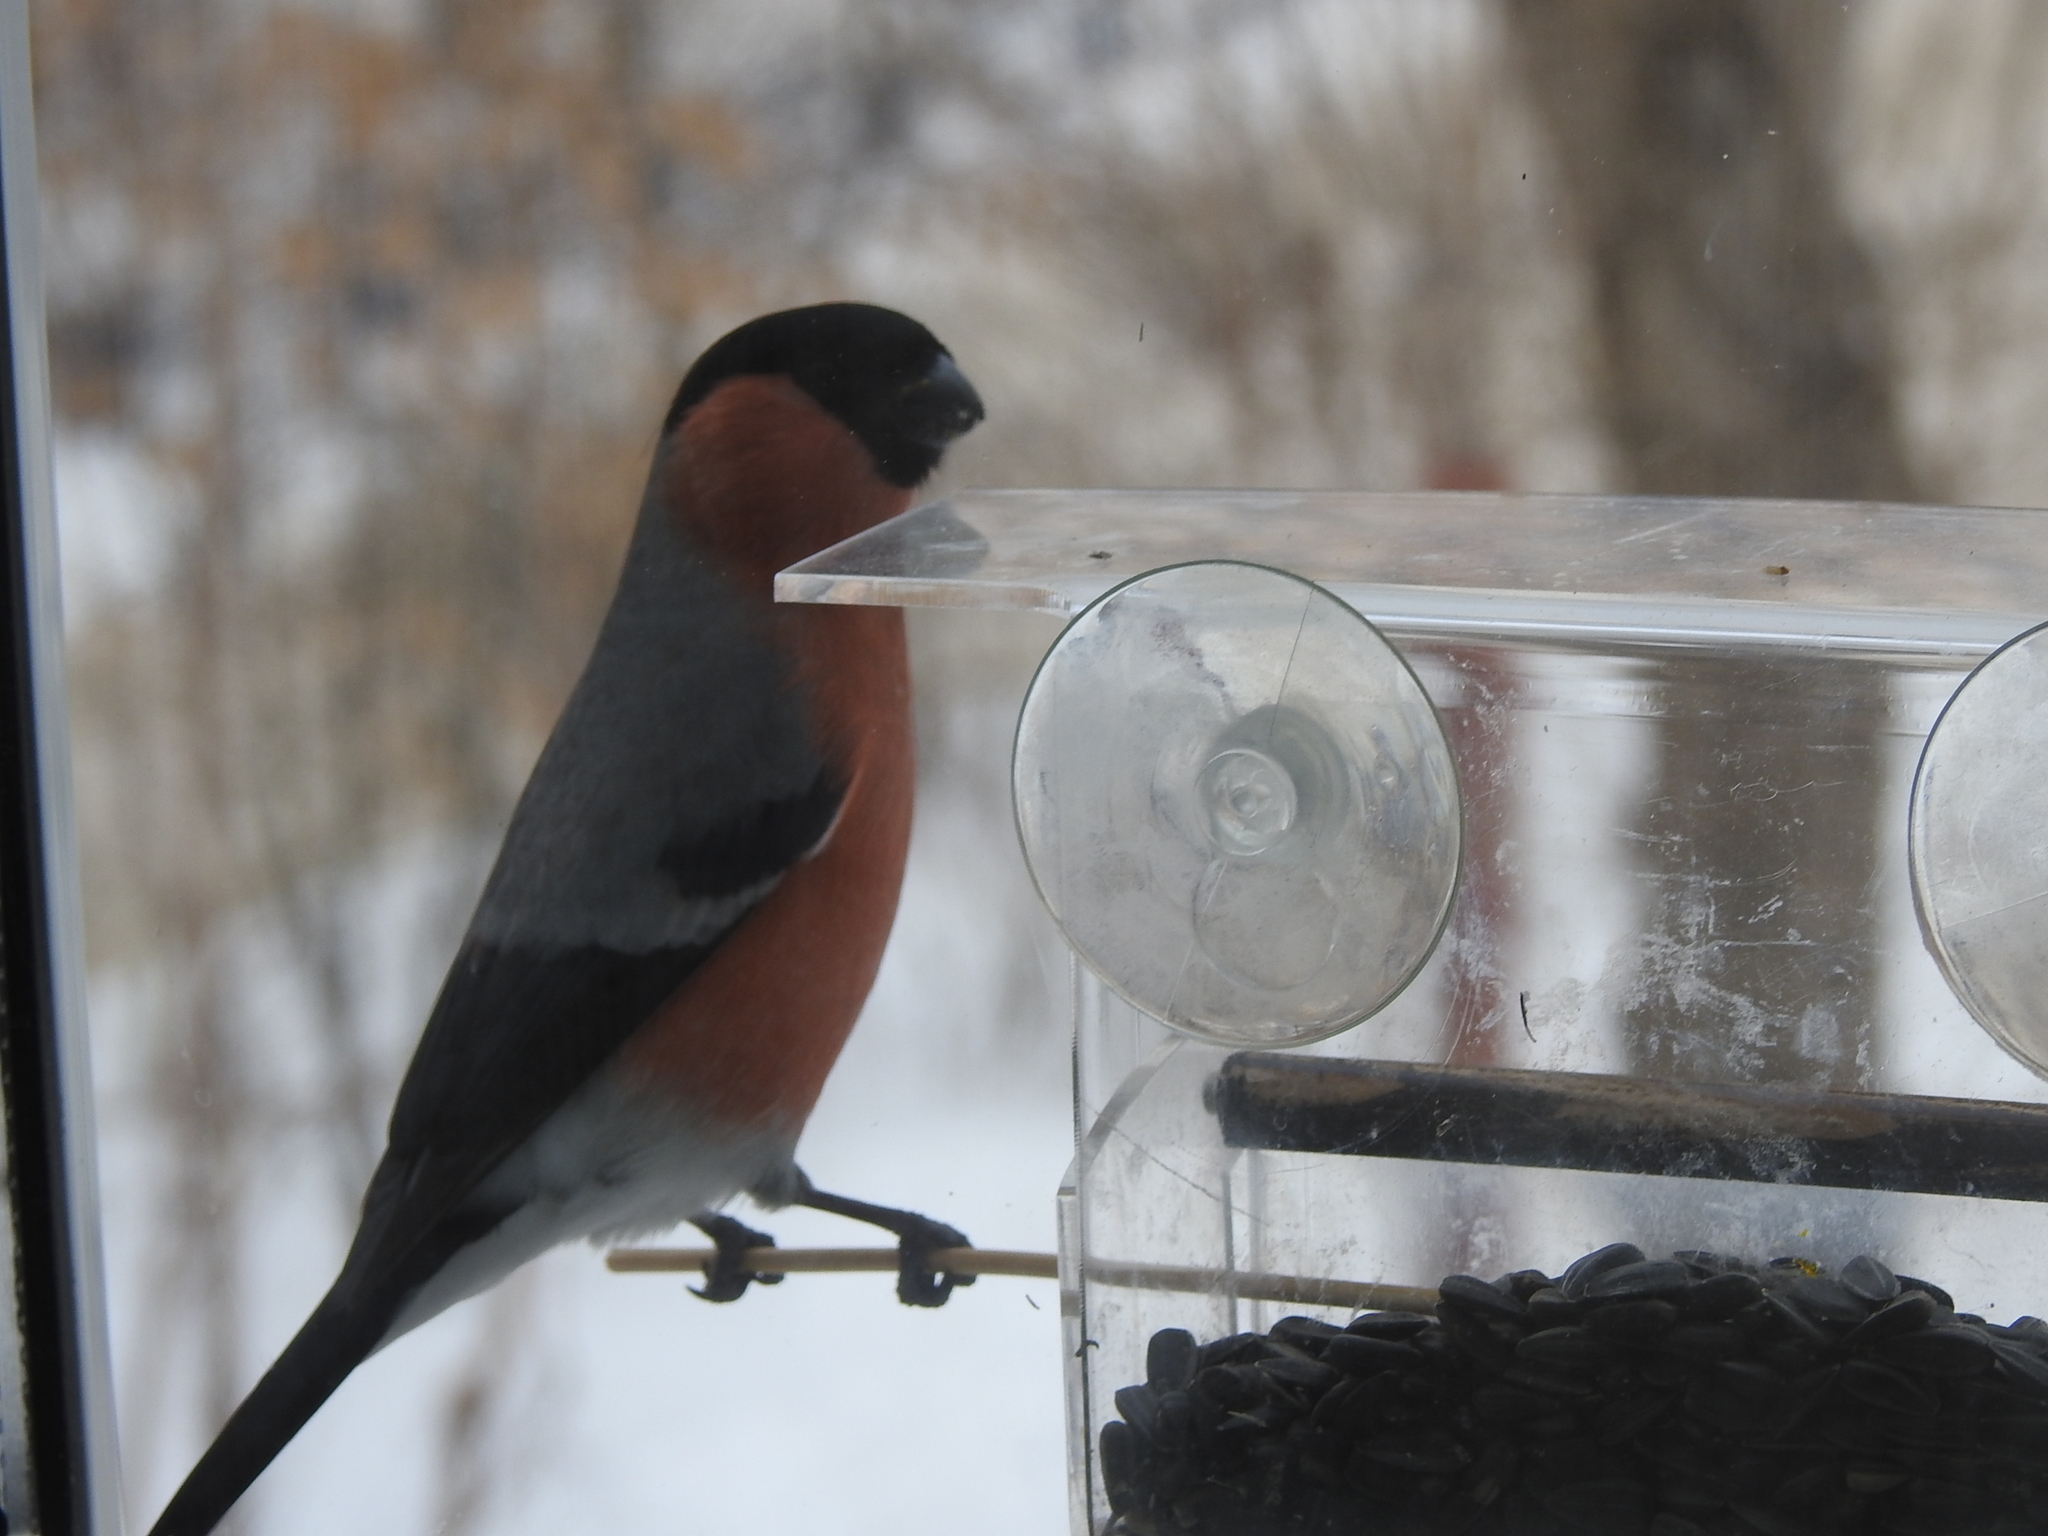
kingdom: Animalia
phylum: Chordata
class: Aves
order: Passeriformes
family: Fringillidae
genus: Pyrrhula
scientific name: Pyrrhula pyrrhula
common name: Eurasian bullfinch
